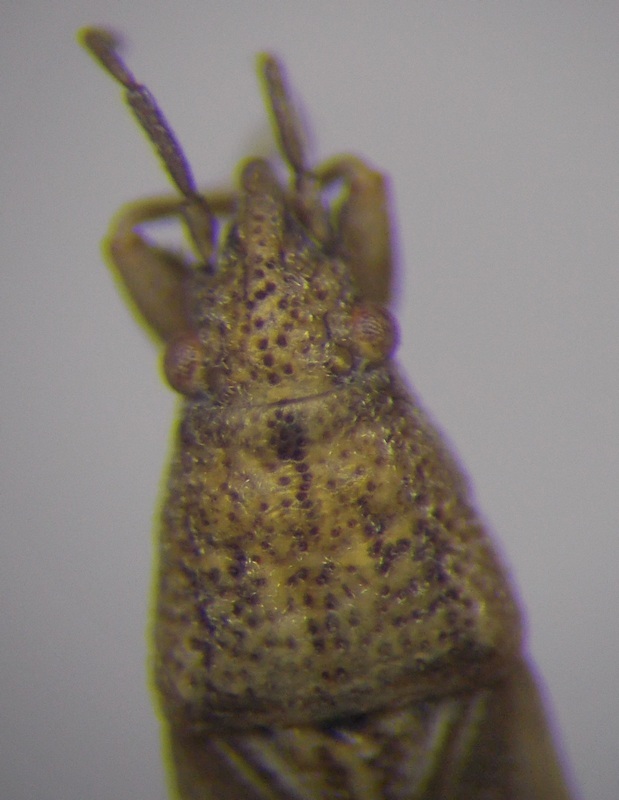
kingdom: Animalia
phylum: Arthropoda
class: Insecta
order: Hemiptera
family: Pachygronthidae
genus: Cymophyes
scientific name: Cymophyes golodnajana
